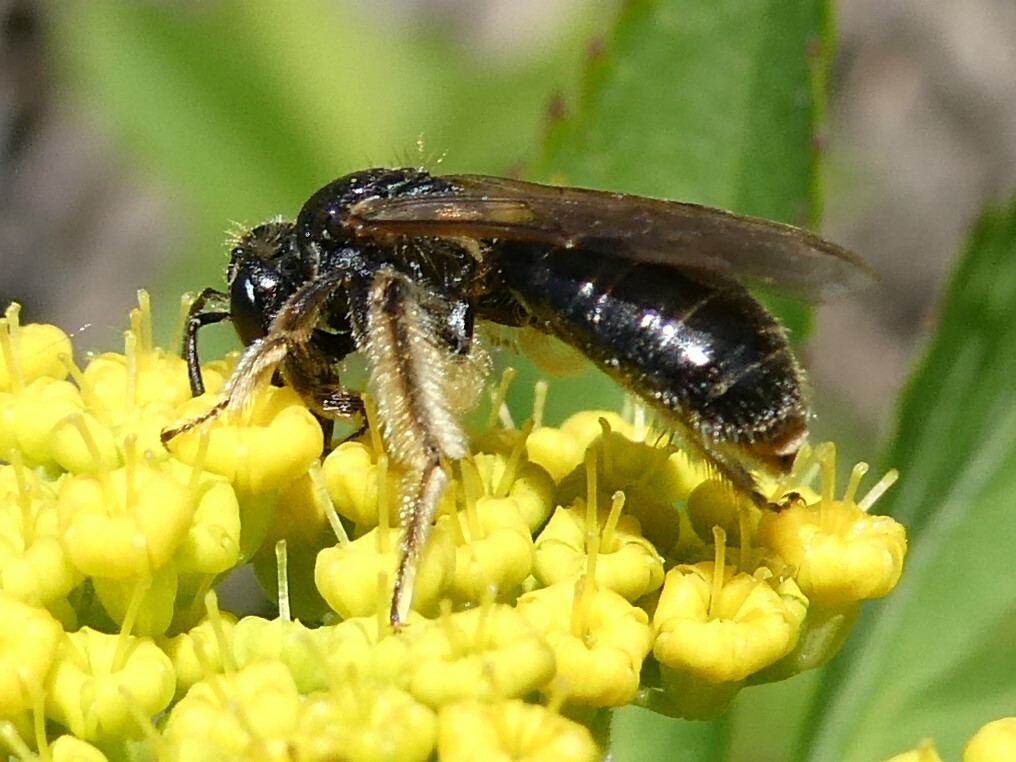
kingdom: Animalia
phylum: Arthropoda
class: Insecta
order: Hymenoptera
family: Andrenidae
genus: Andrena
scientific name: Andrena integra
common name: Short-haired dogwood mining bee
